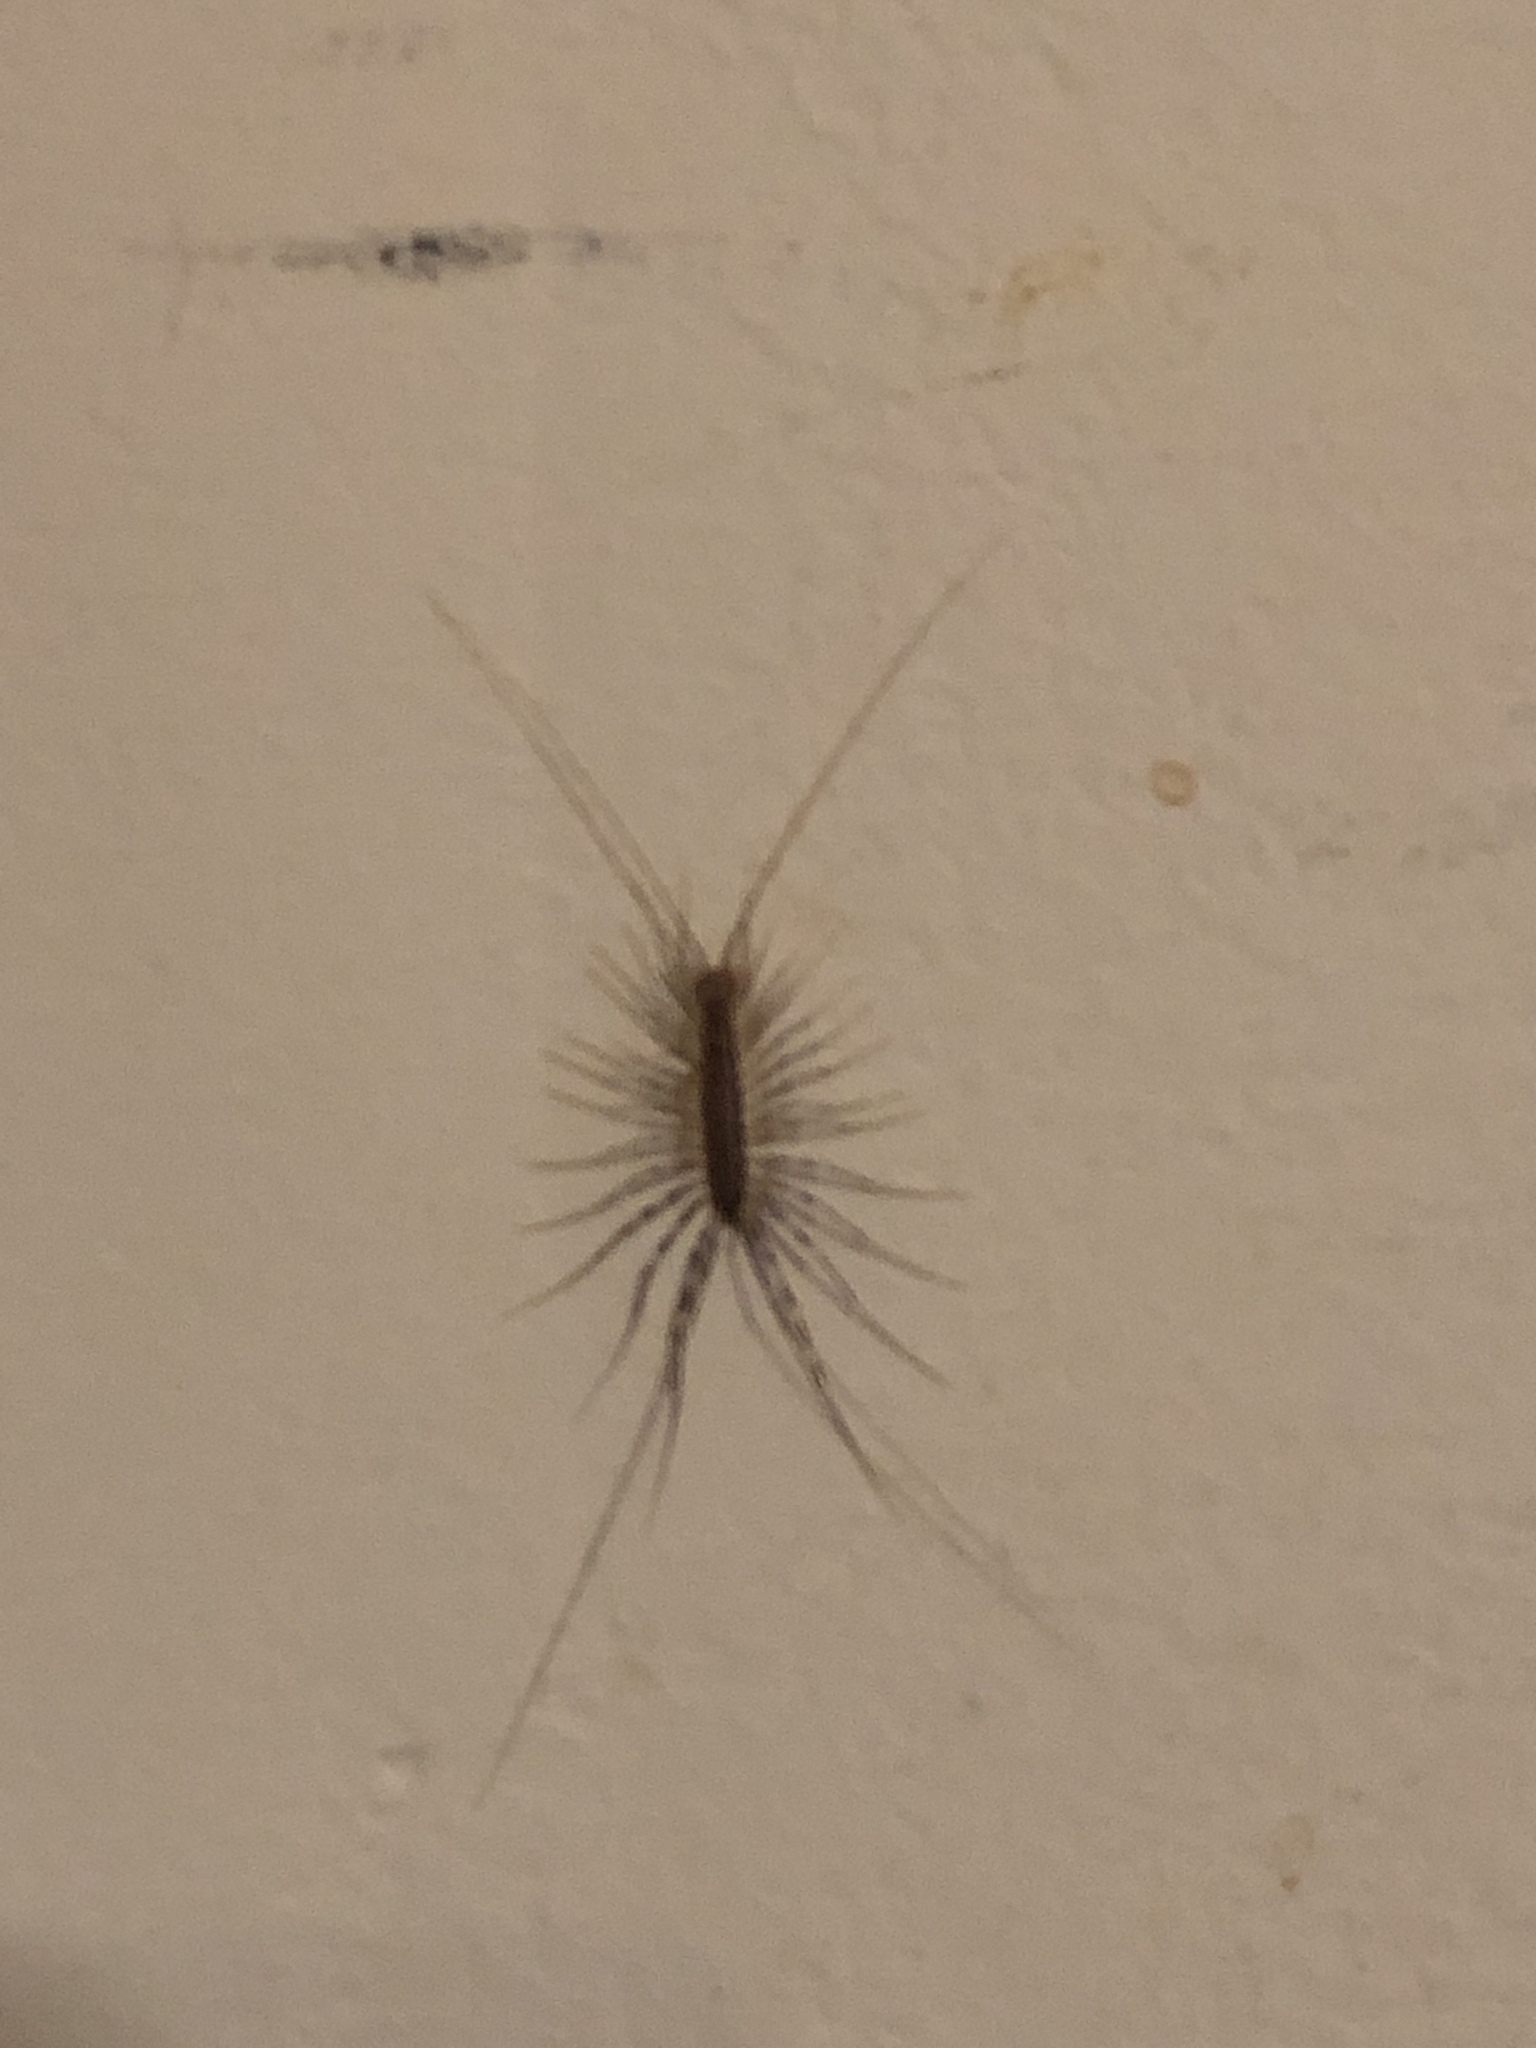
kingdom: Animalia
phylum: Arthropoda
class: Chilopoda
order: Scutigeromorpha
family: Scutigeridae
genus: Scutigera
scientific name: Scutigera coleoptrata
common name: House centipede
